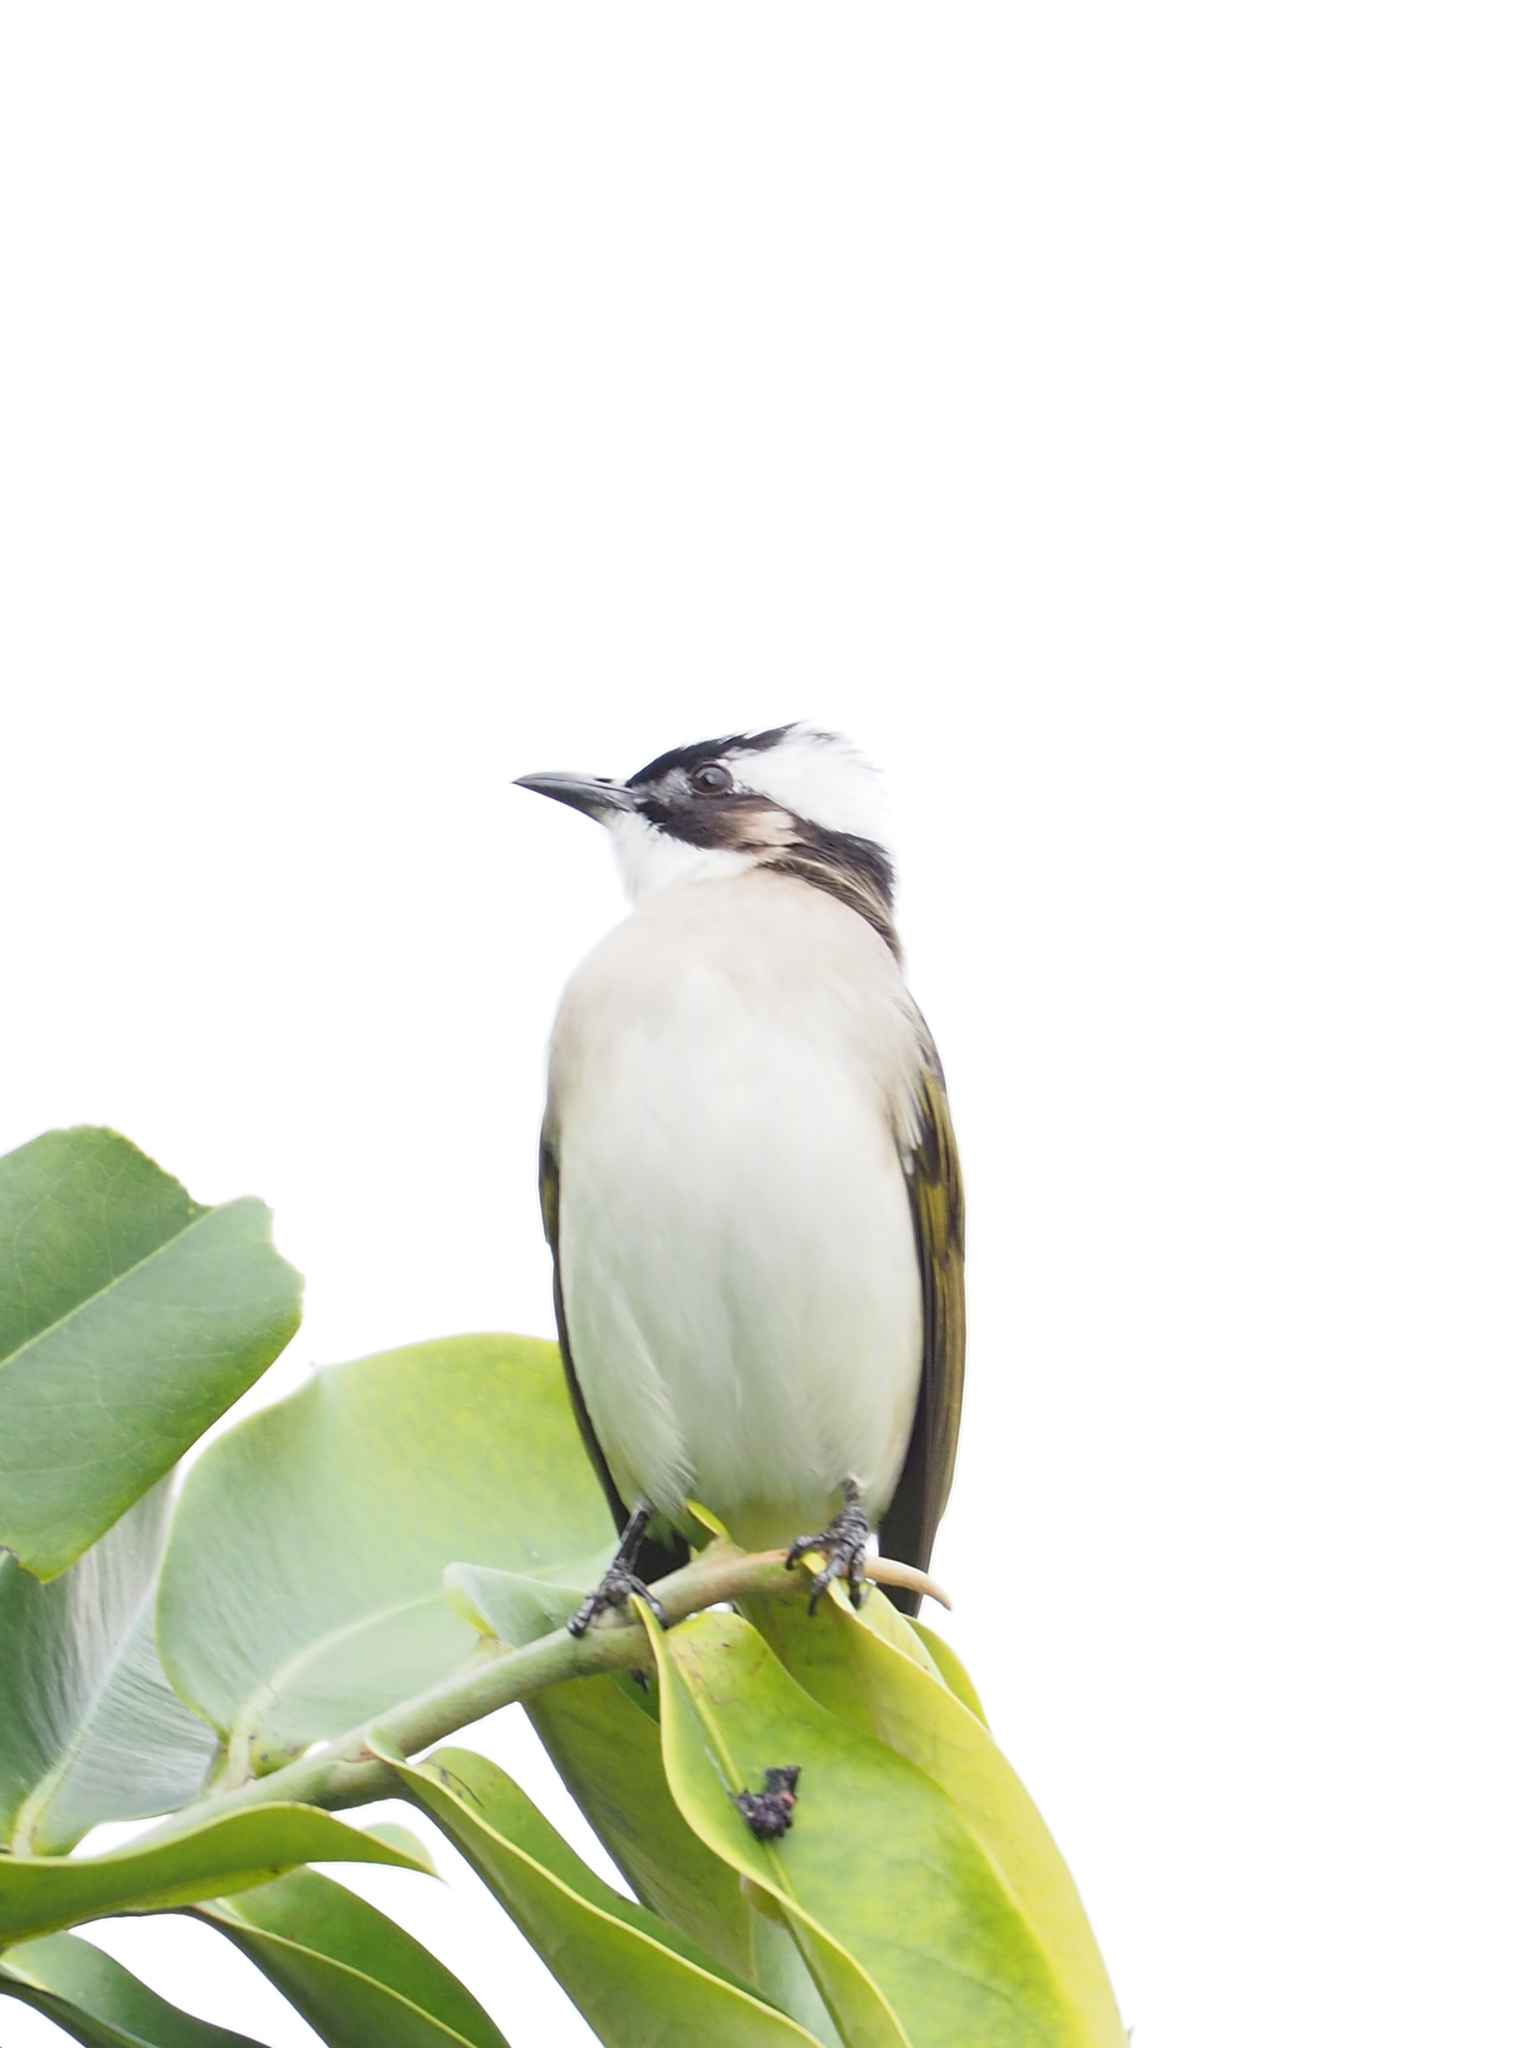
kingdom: Animalia
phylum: Chordata
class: Aves
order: Passeriformes
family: Pycnonotidae
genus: Pycnonotus
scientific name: Pycnonotus sinensis
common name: Light-vented bulbul
